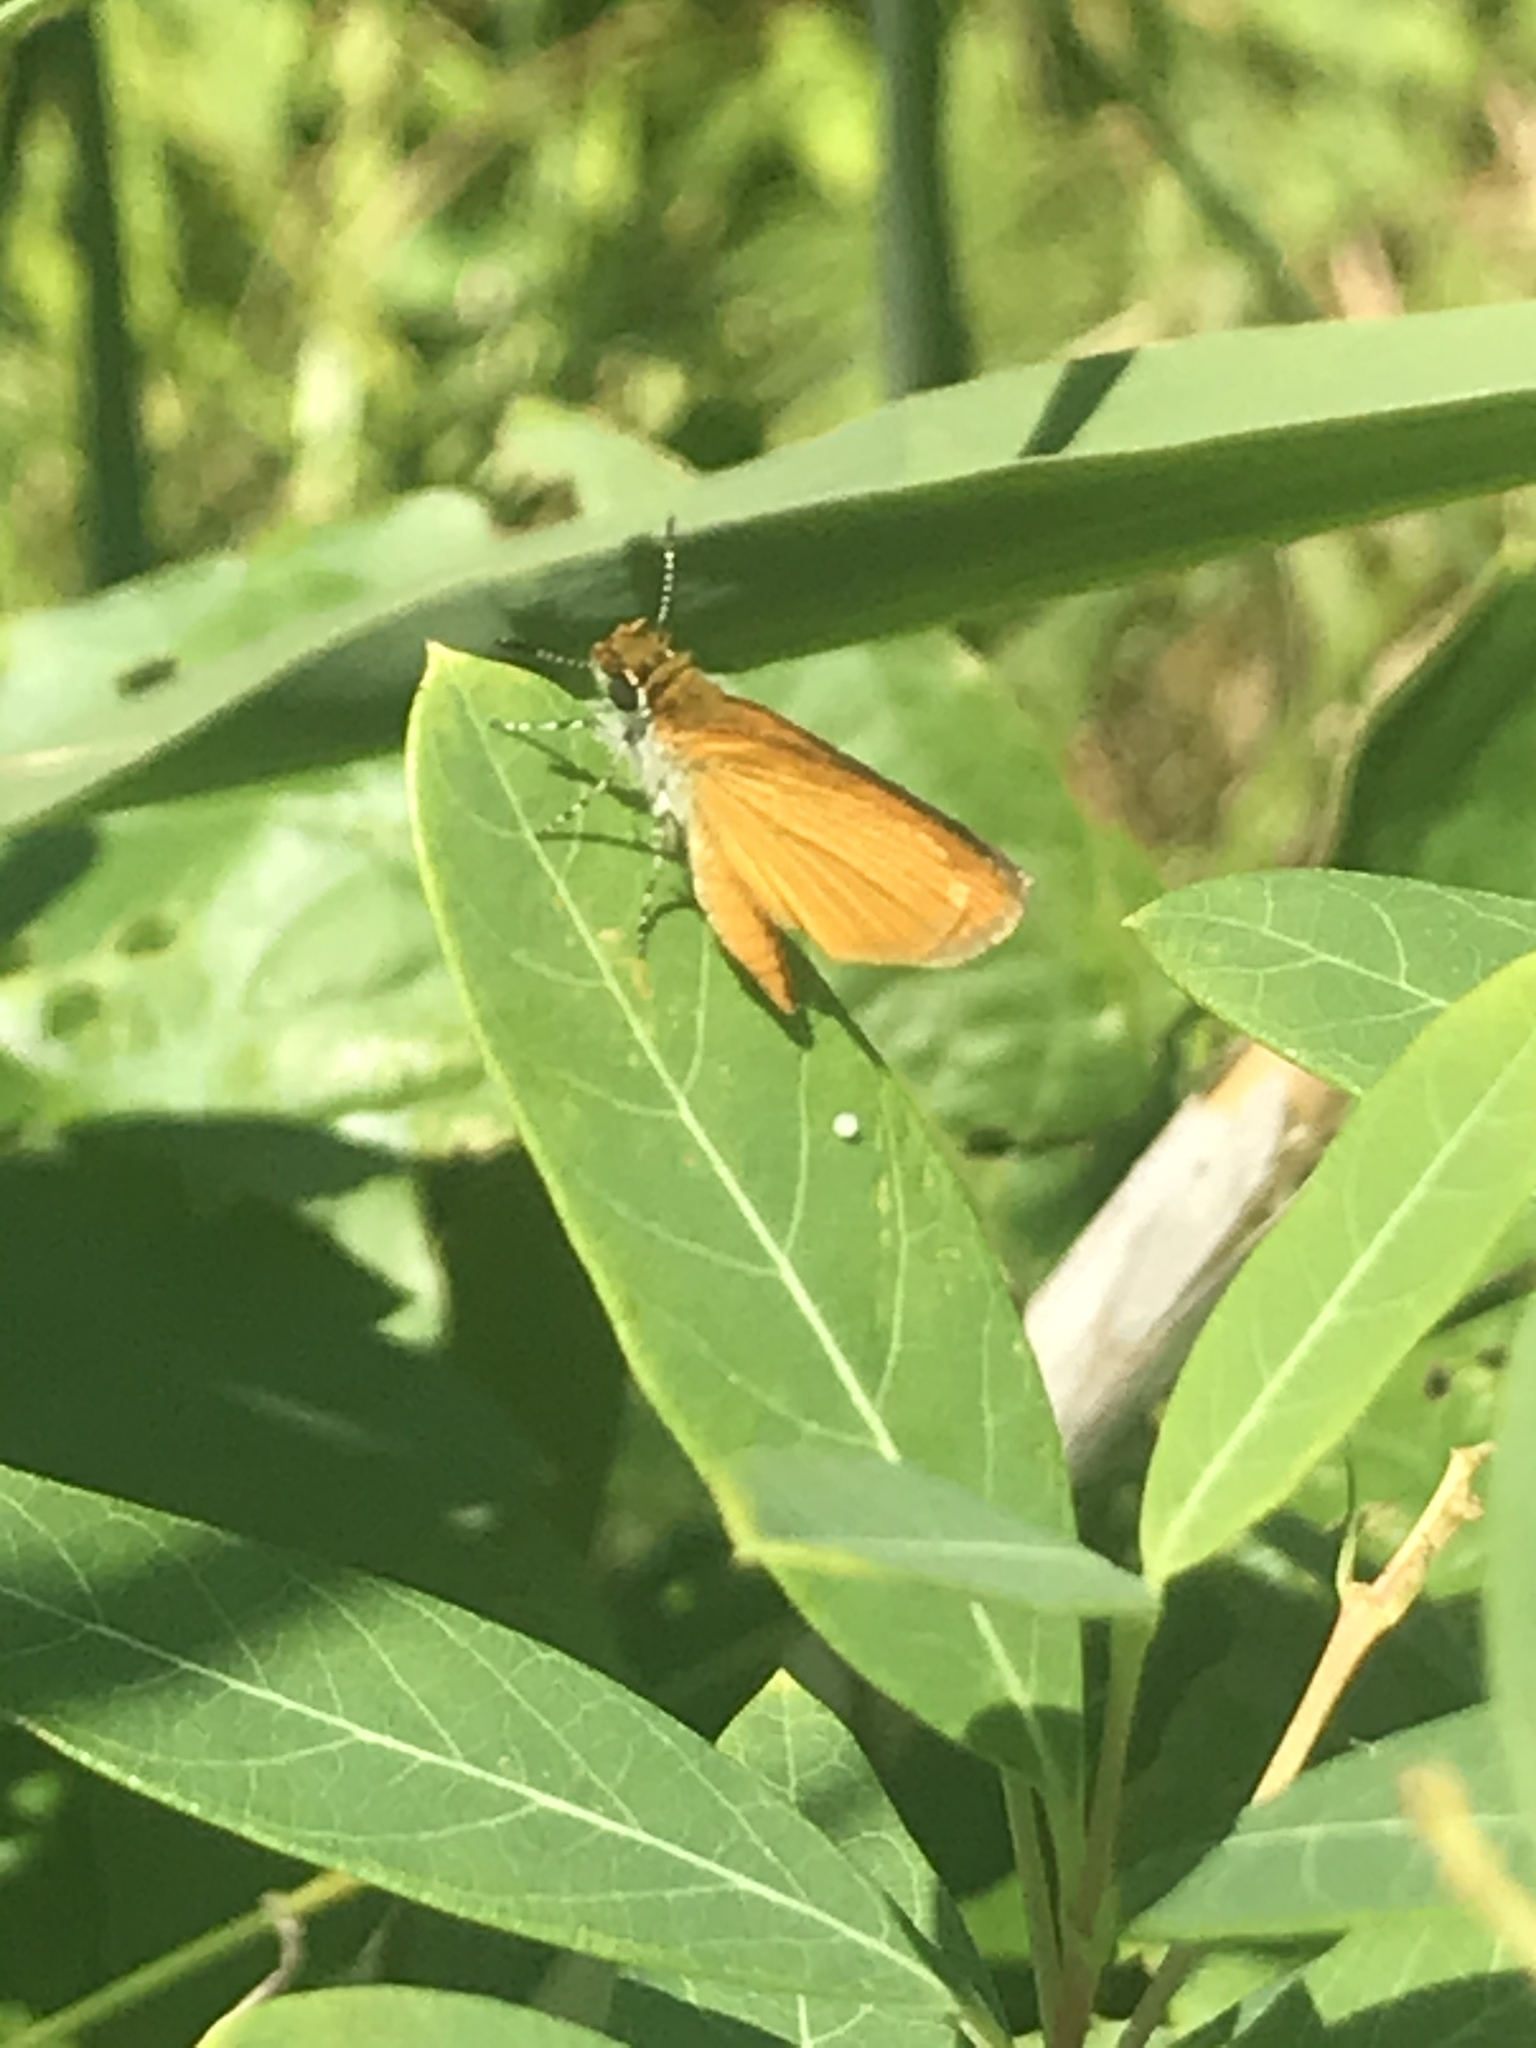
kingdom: Animalia
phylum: Arthropoda
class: Insecta
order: Lepidoptera
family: Hesperiidae
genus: Ancyloxypha
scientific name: Ancyloxypha numitor
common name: Least skipper
